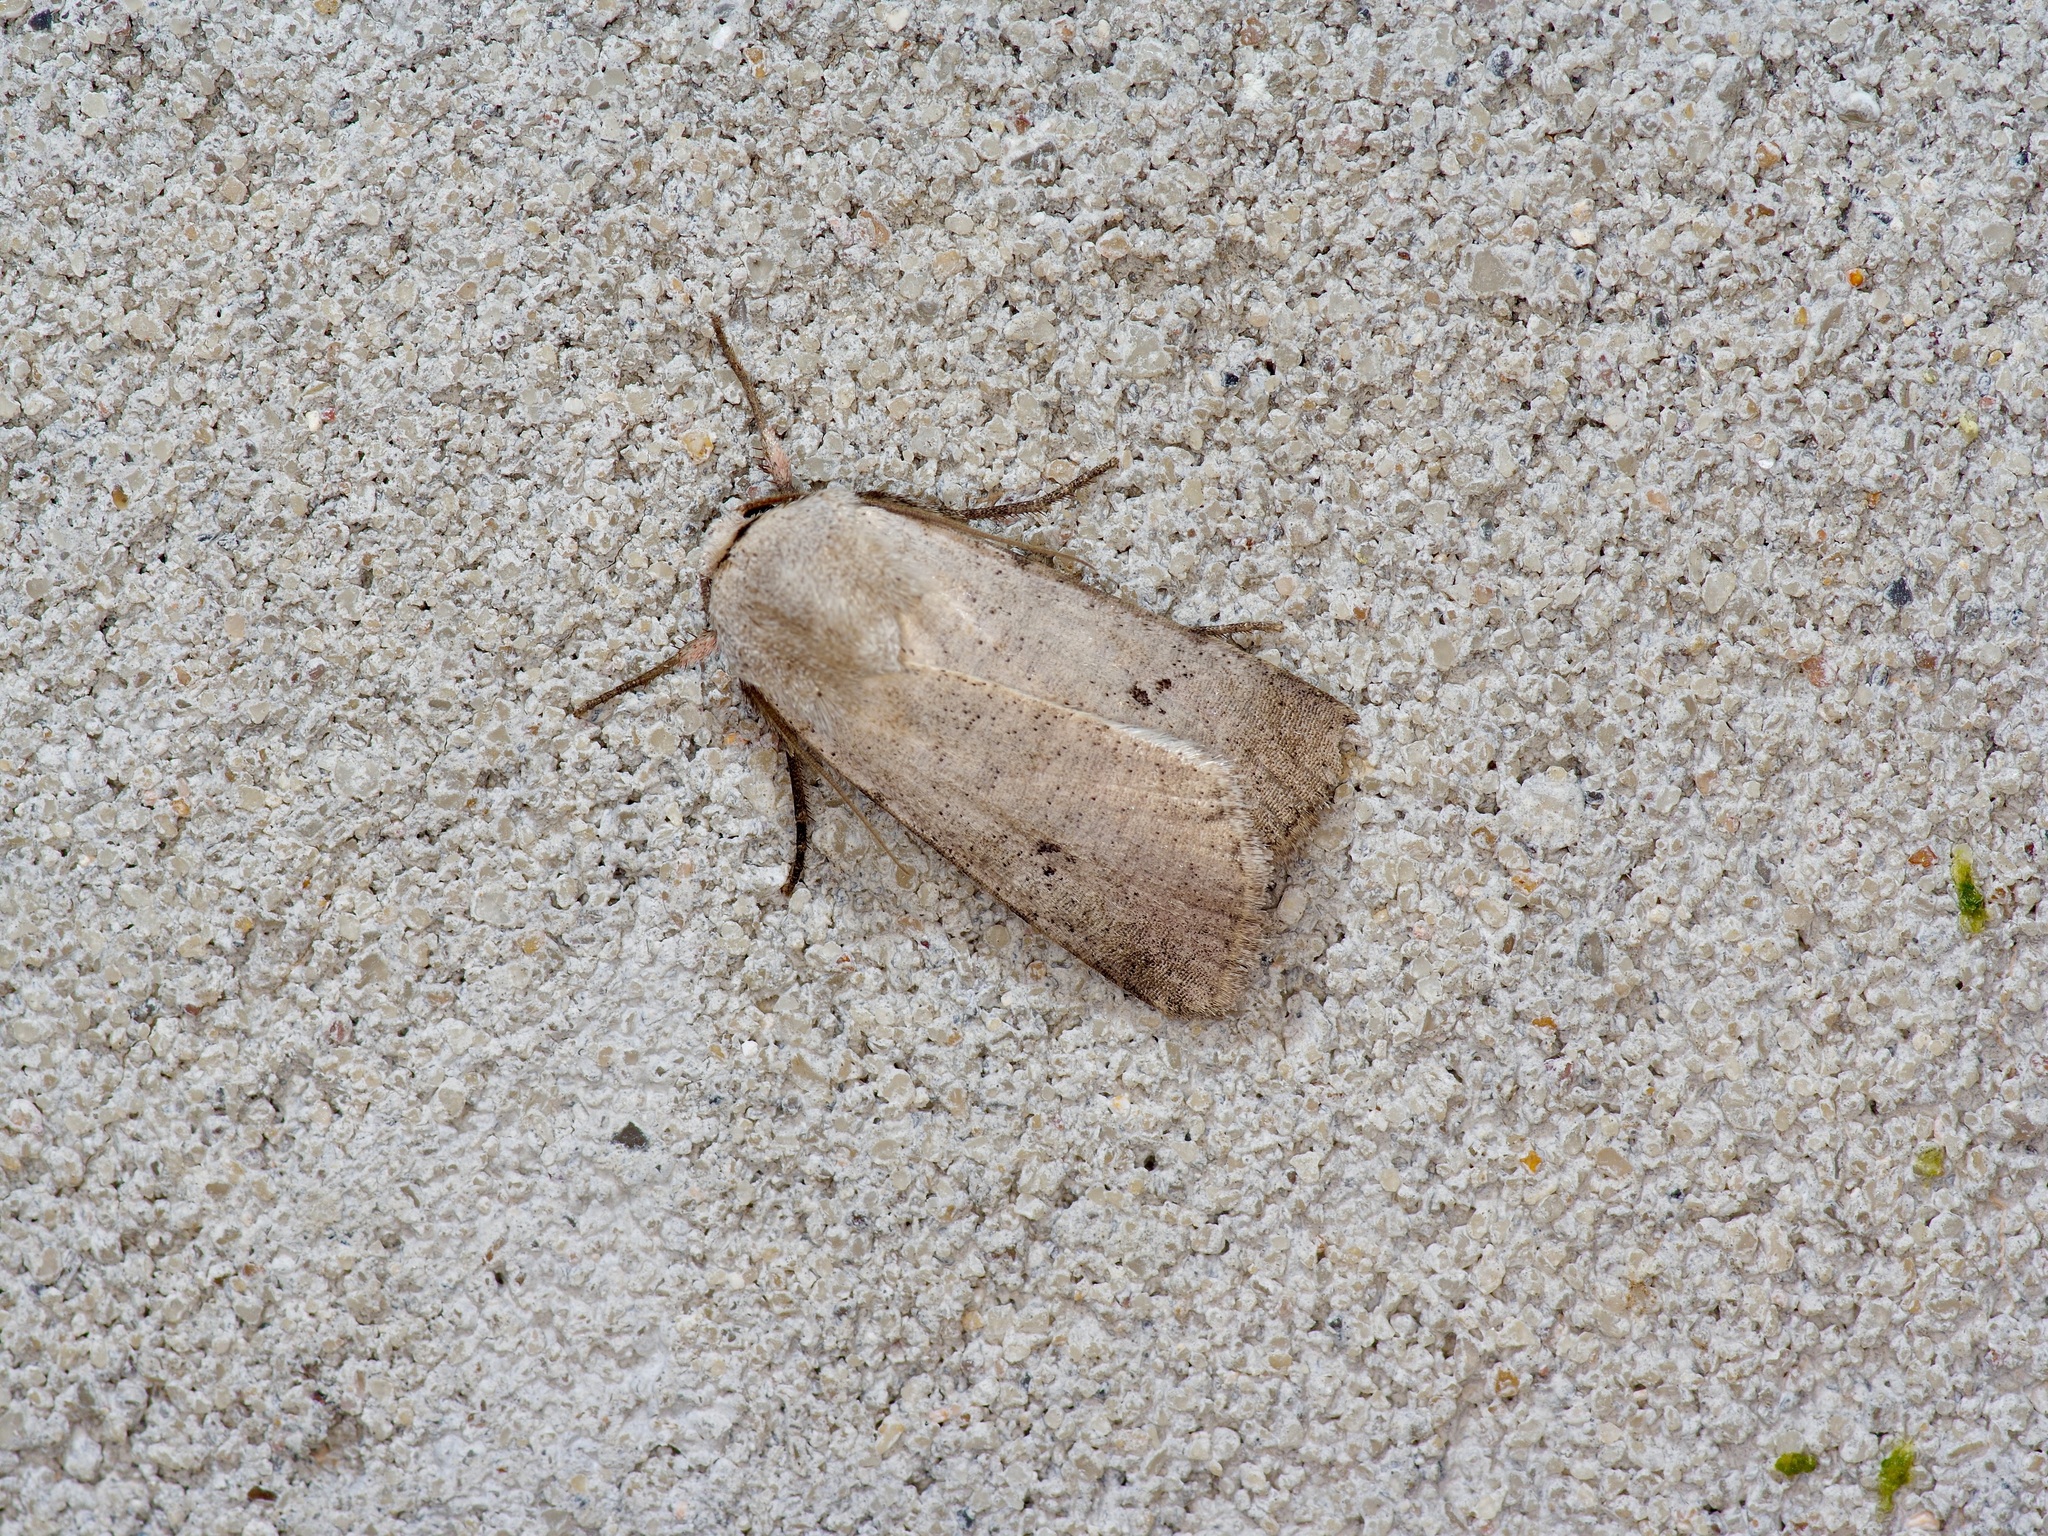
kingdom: Animalia
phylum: Arthropoda
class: Insecta
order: Lepidoptera
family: Noctuidae
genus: Anicla
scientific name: Anicla digna
